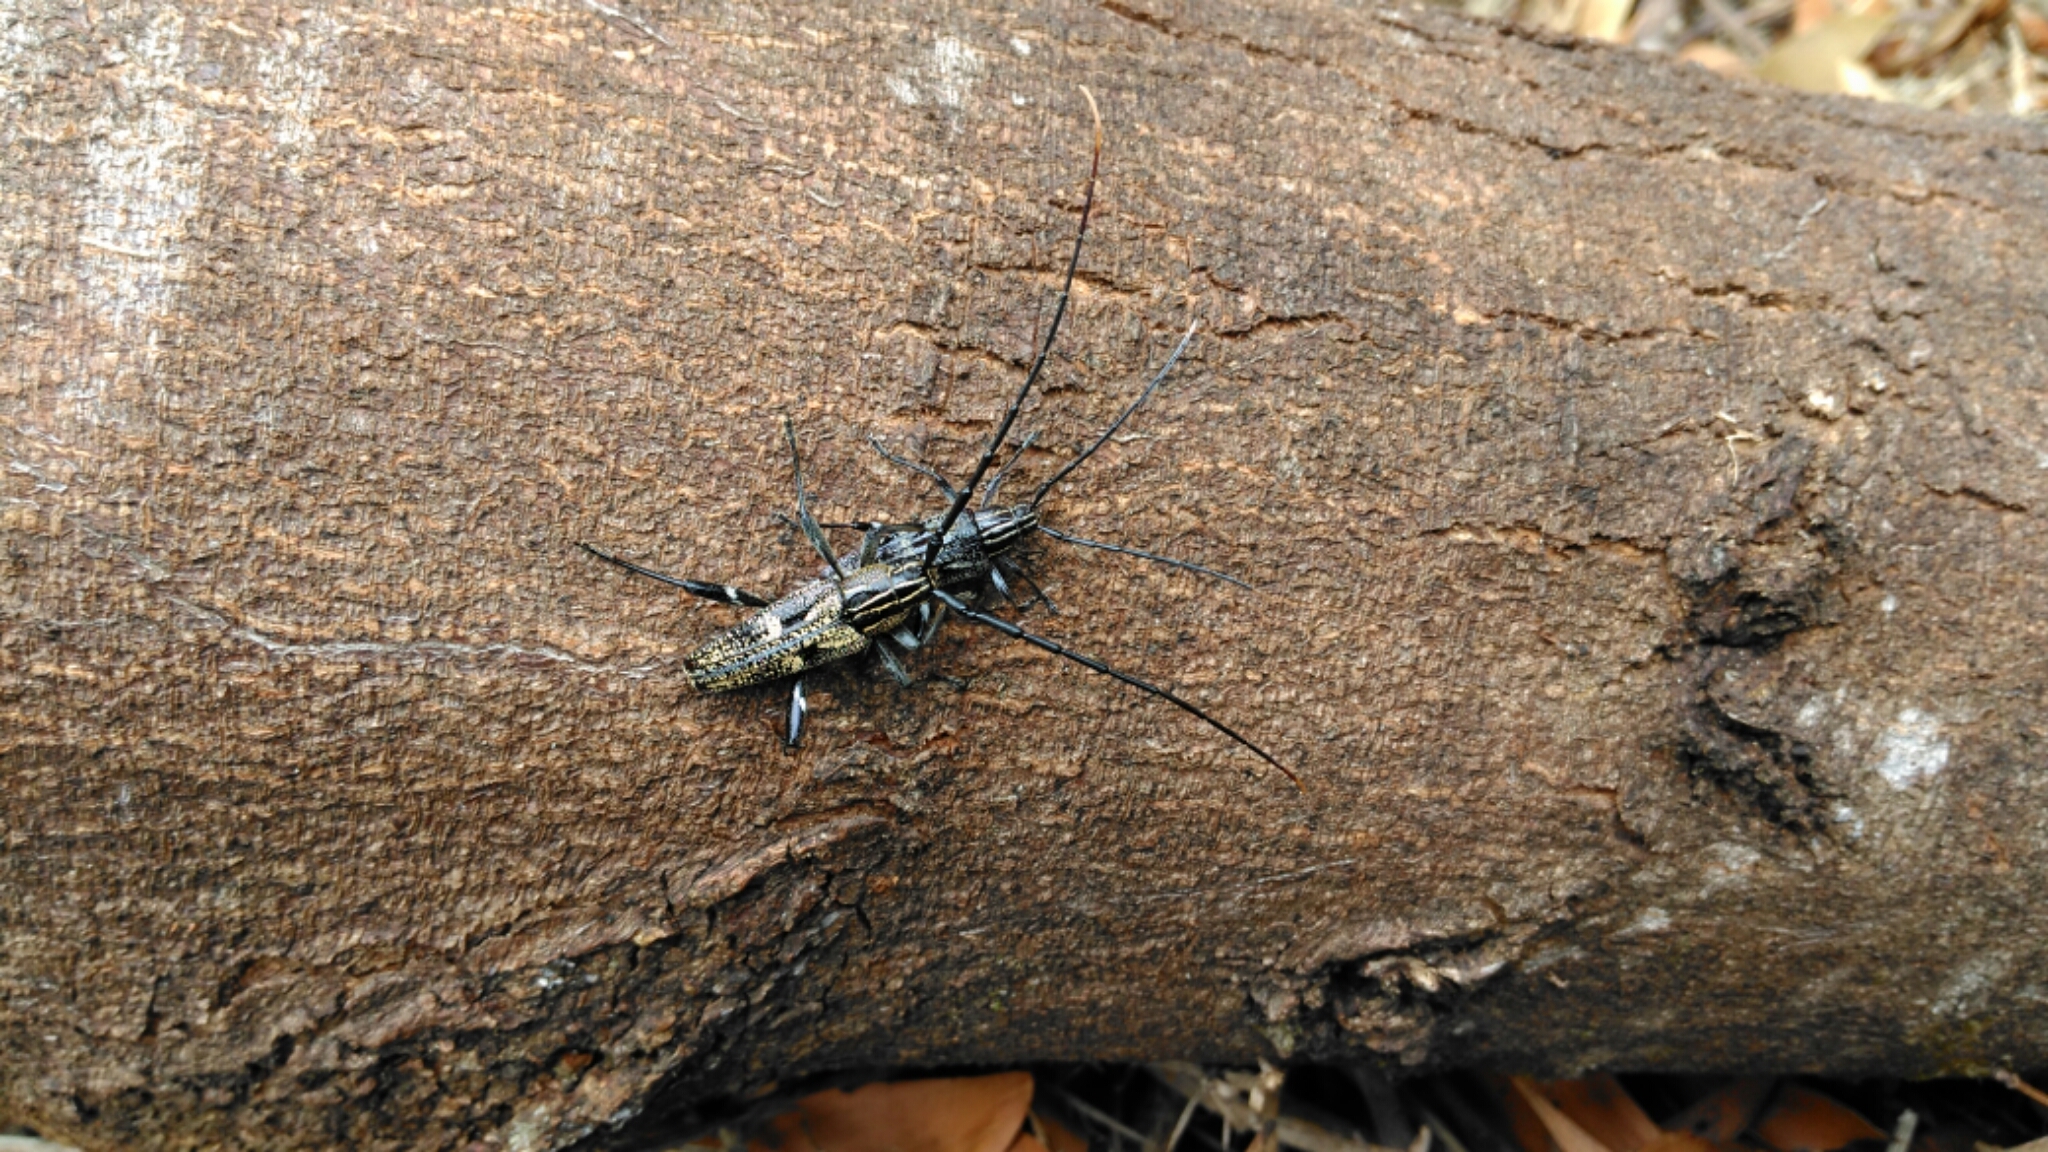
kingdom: Animalia
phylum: Arthropoda
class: Insecta
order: Coleoptera
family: Cerambycidae
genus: Coptomma
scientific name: Coptomma variegatum
